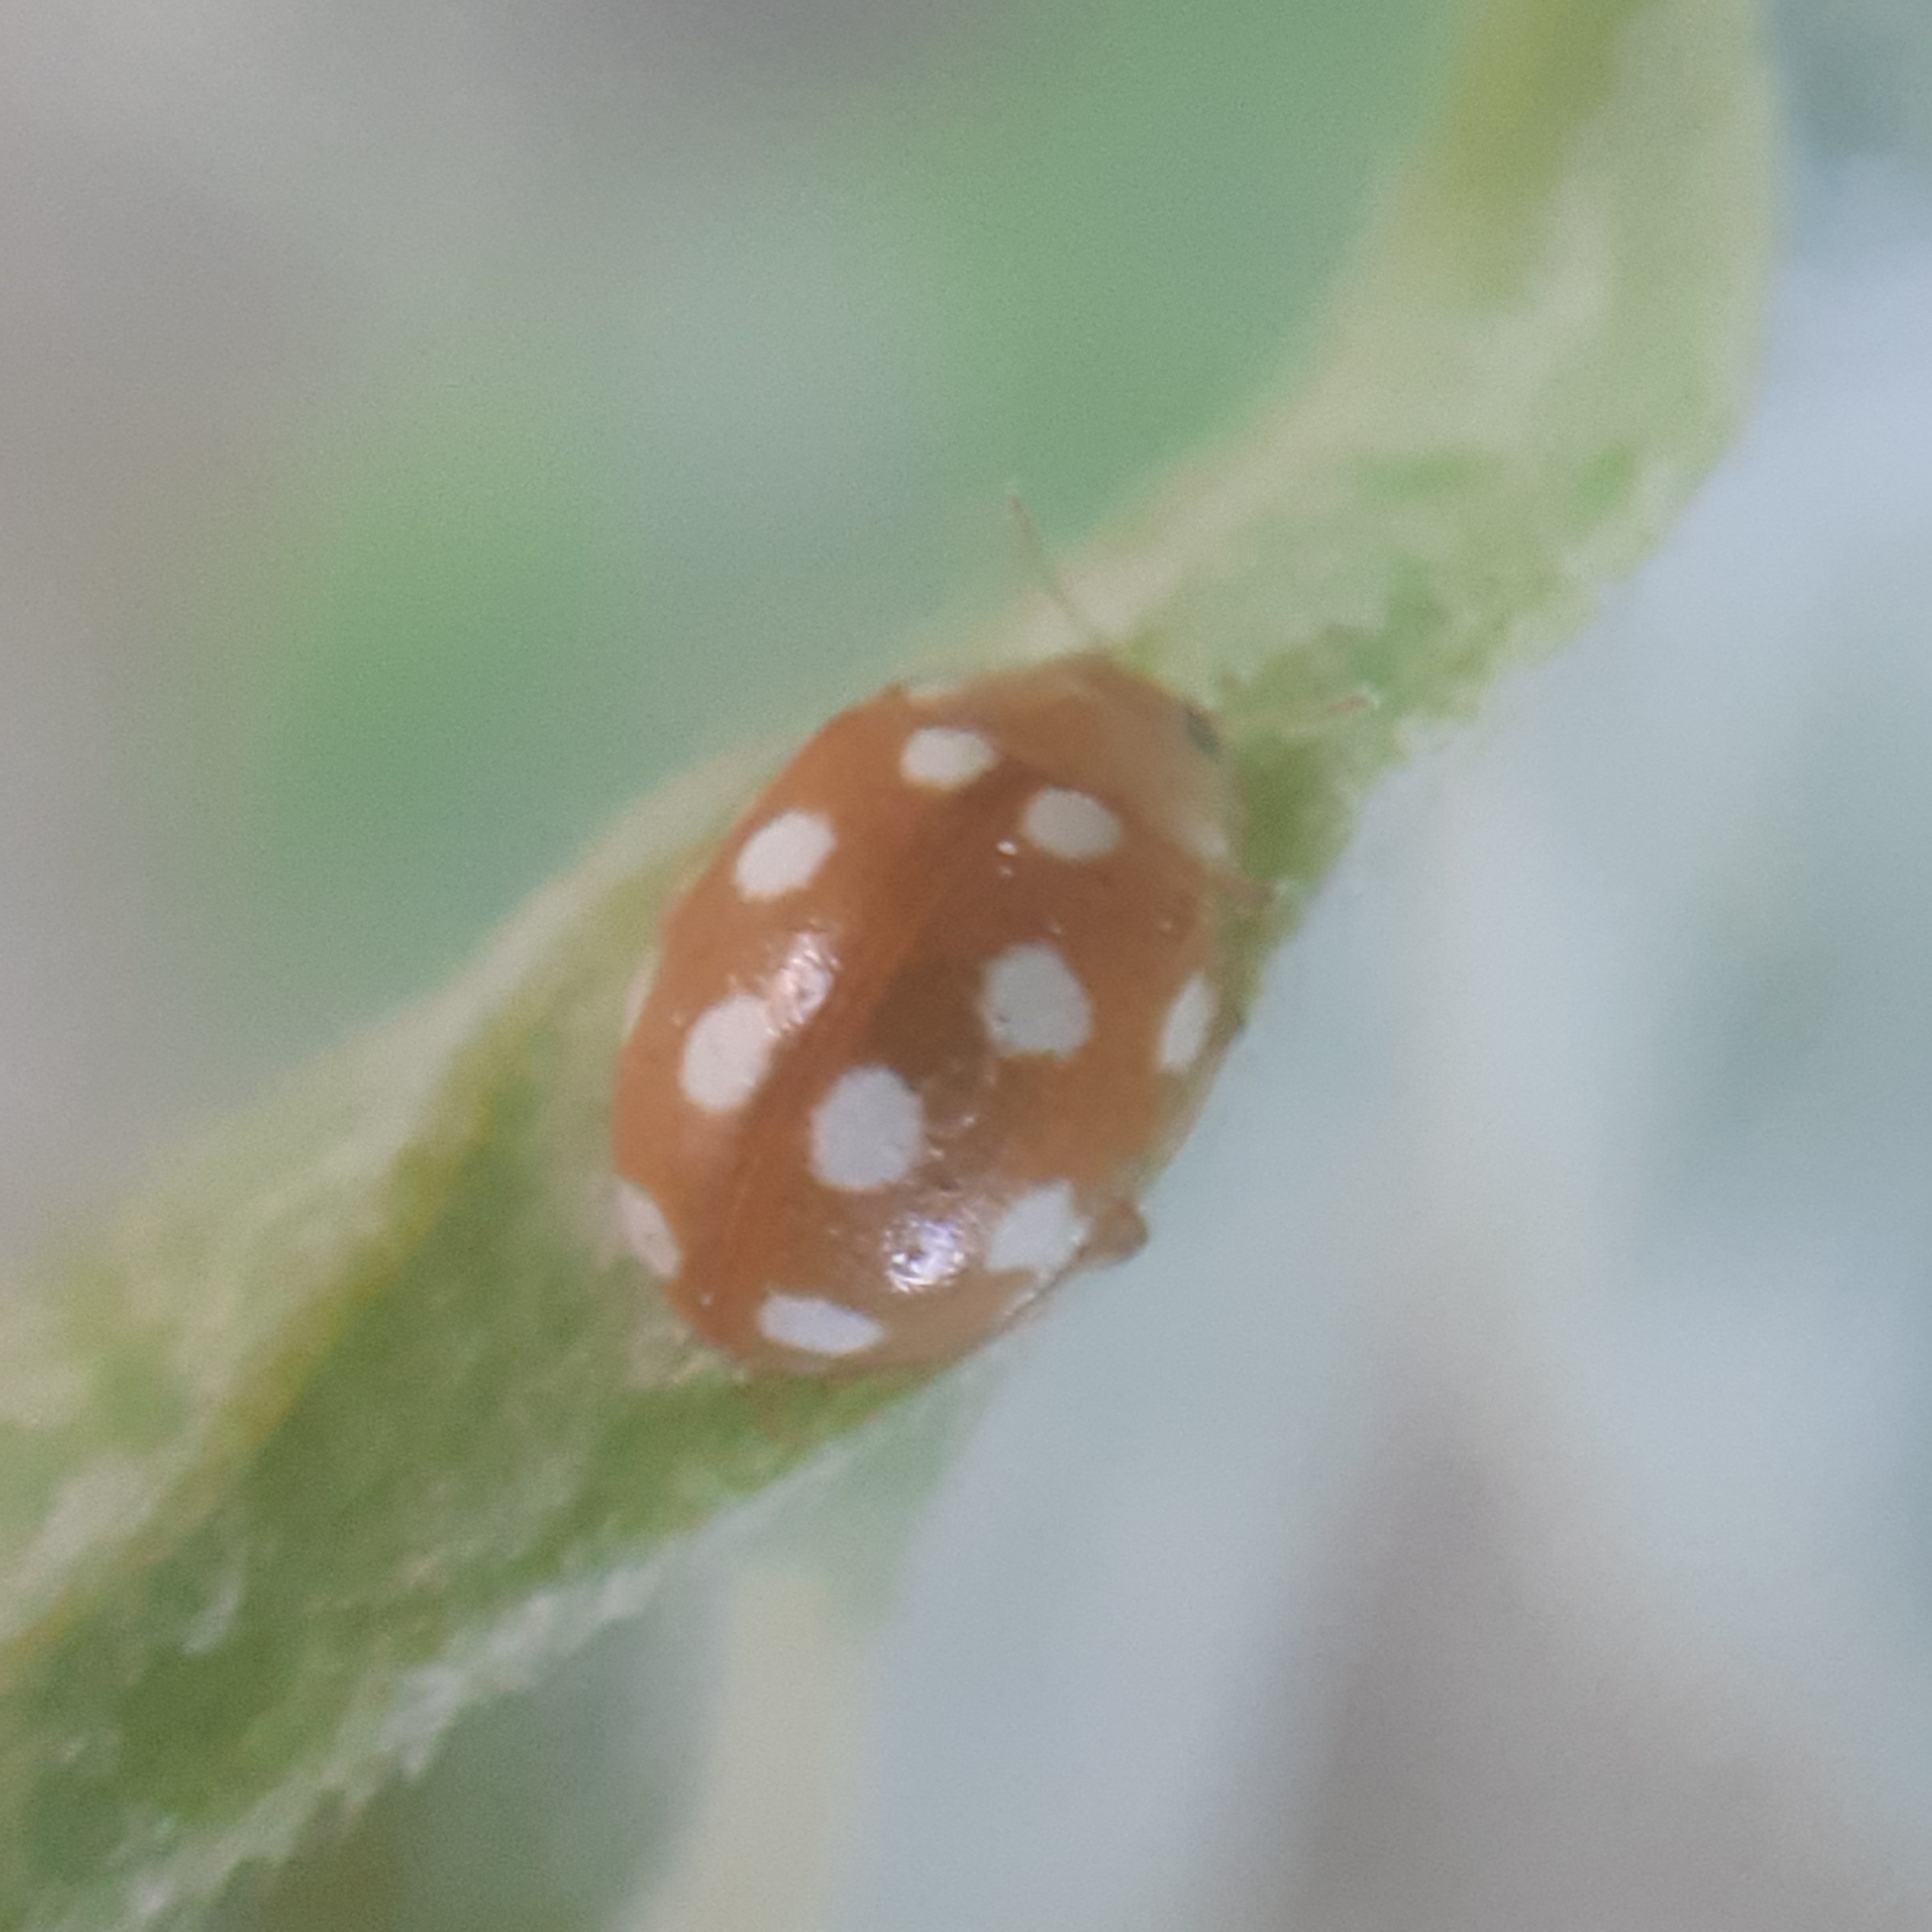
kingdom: Animalia
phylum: Arthropoda
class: Insecta
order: Coleoptera
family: Coccinellidae
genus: Vibidia
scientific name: Vibidia duodecimguttata
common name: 12-spot ladybird
